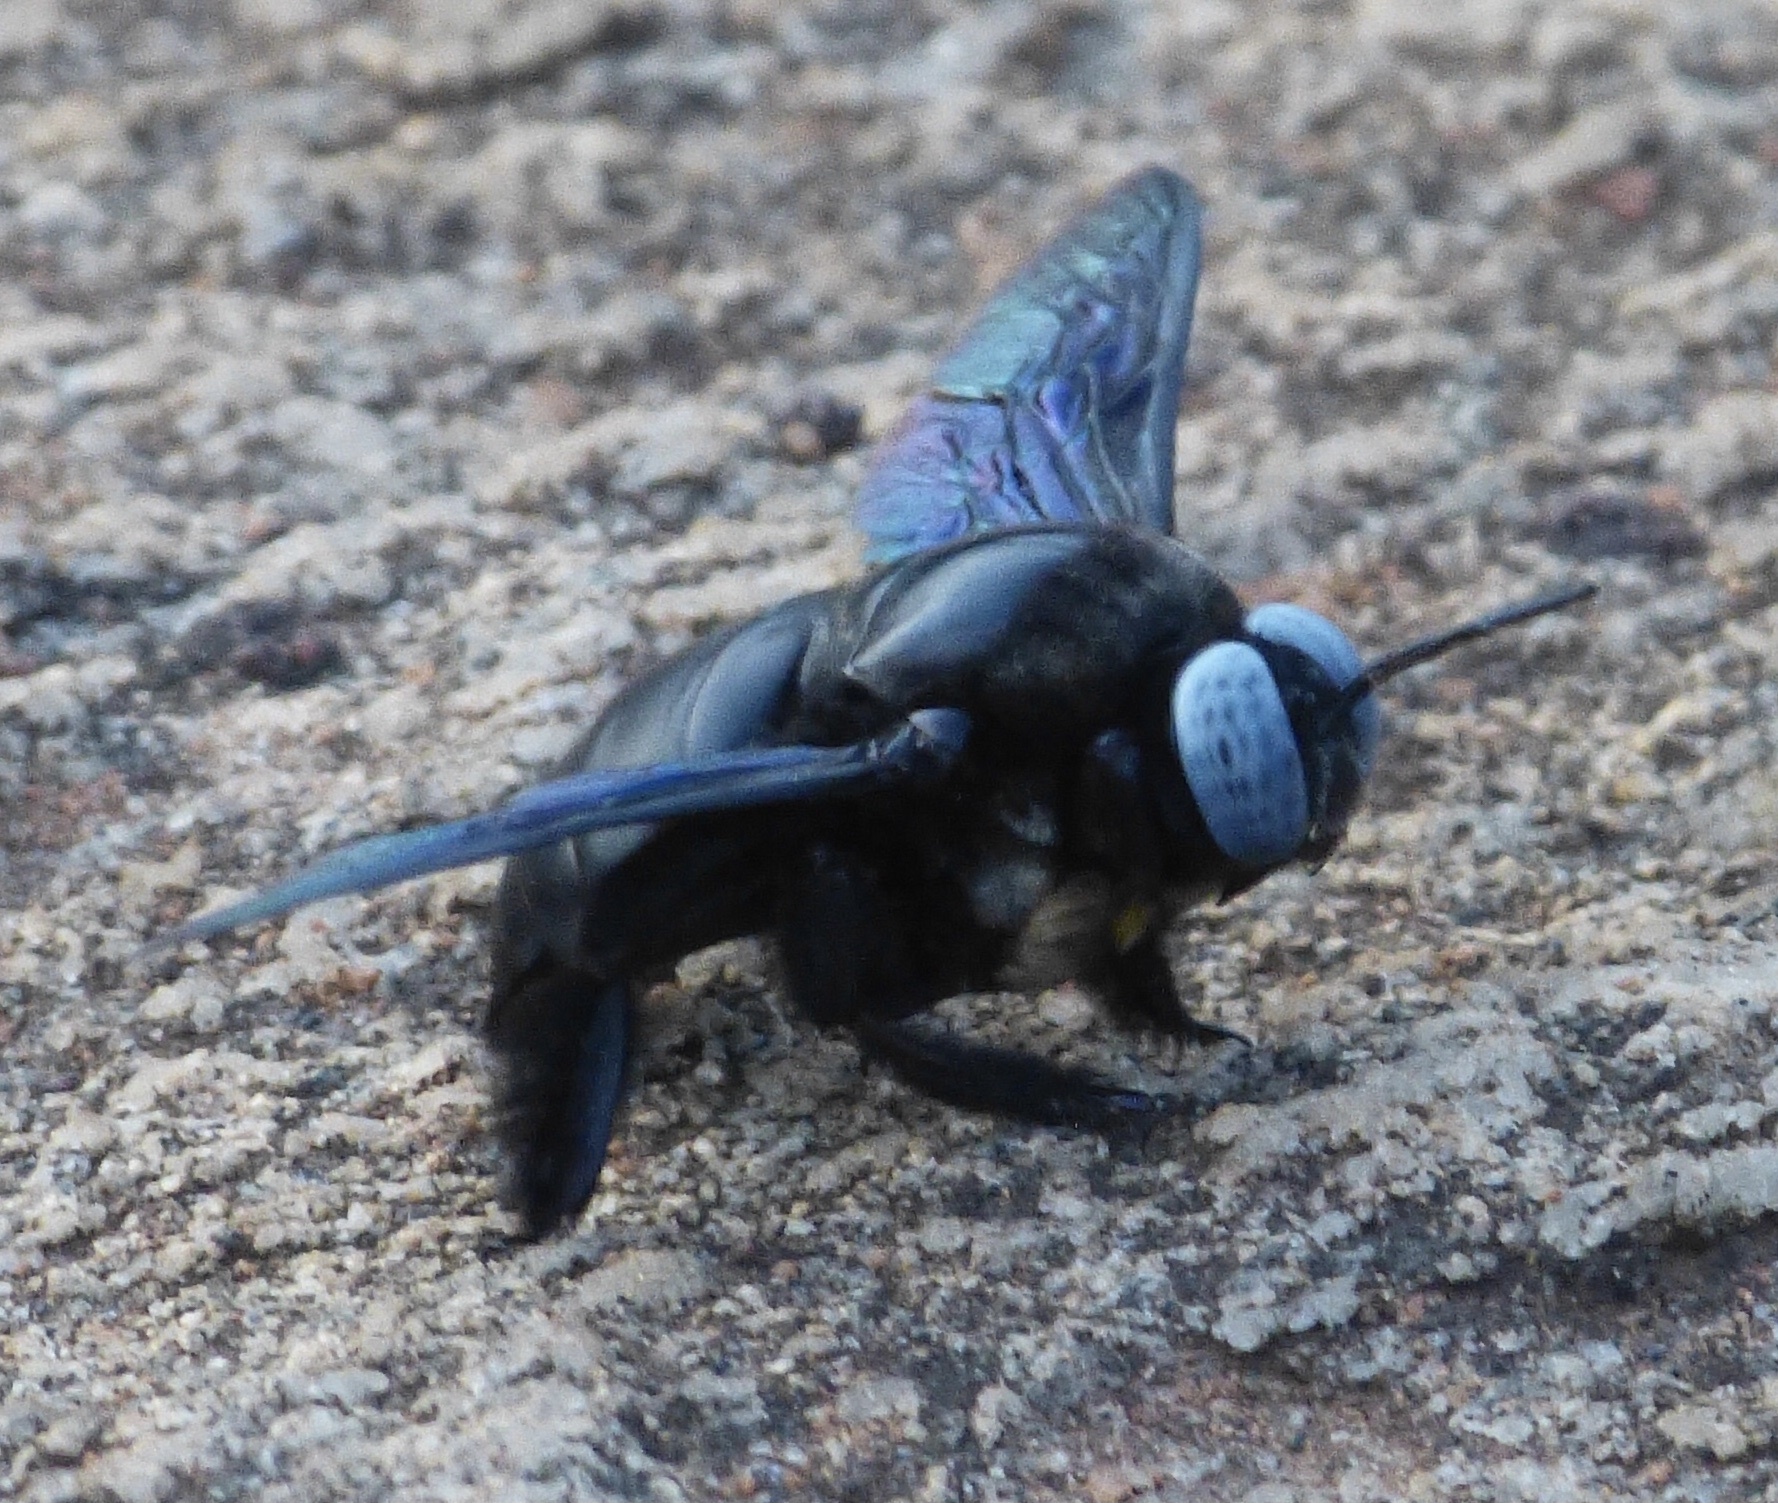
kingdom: Animalia
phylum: Arthropoda
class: Insecta
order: Hymenoptera
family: Apidae
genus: Xylocopa
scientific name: Xylocopa tenuiscapa
